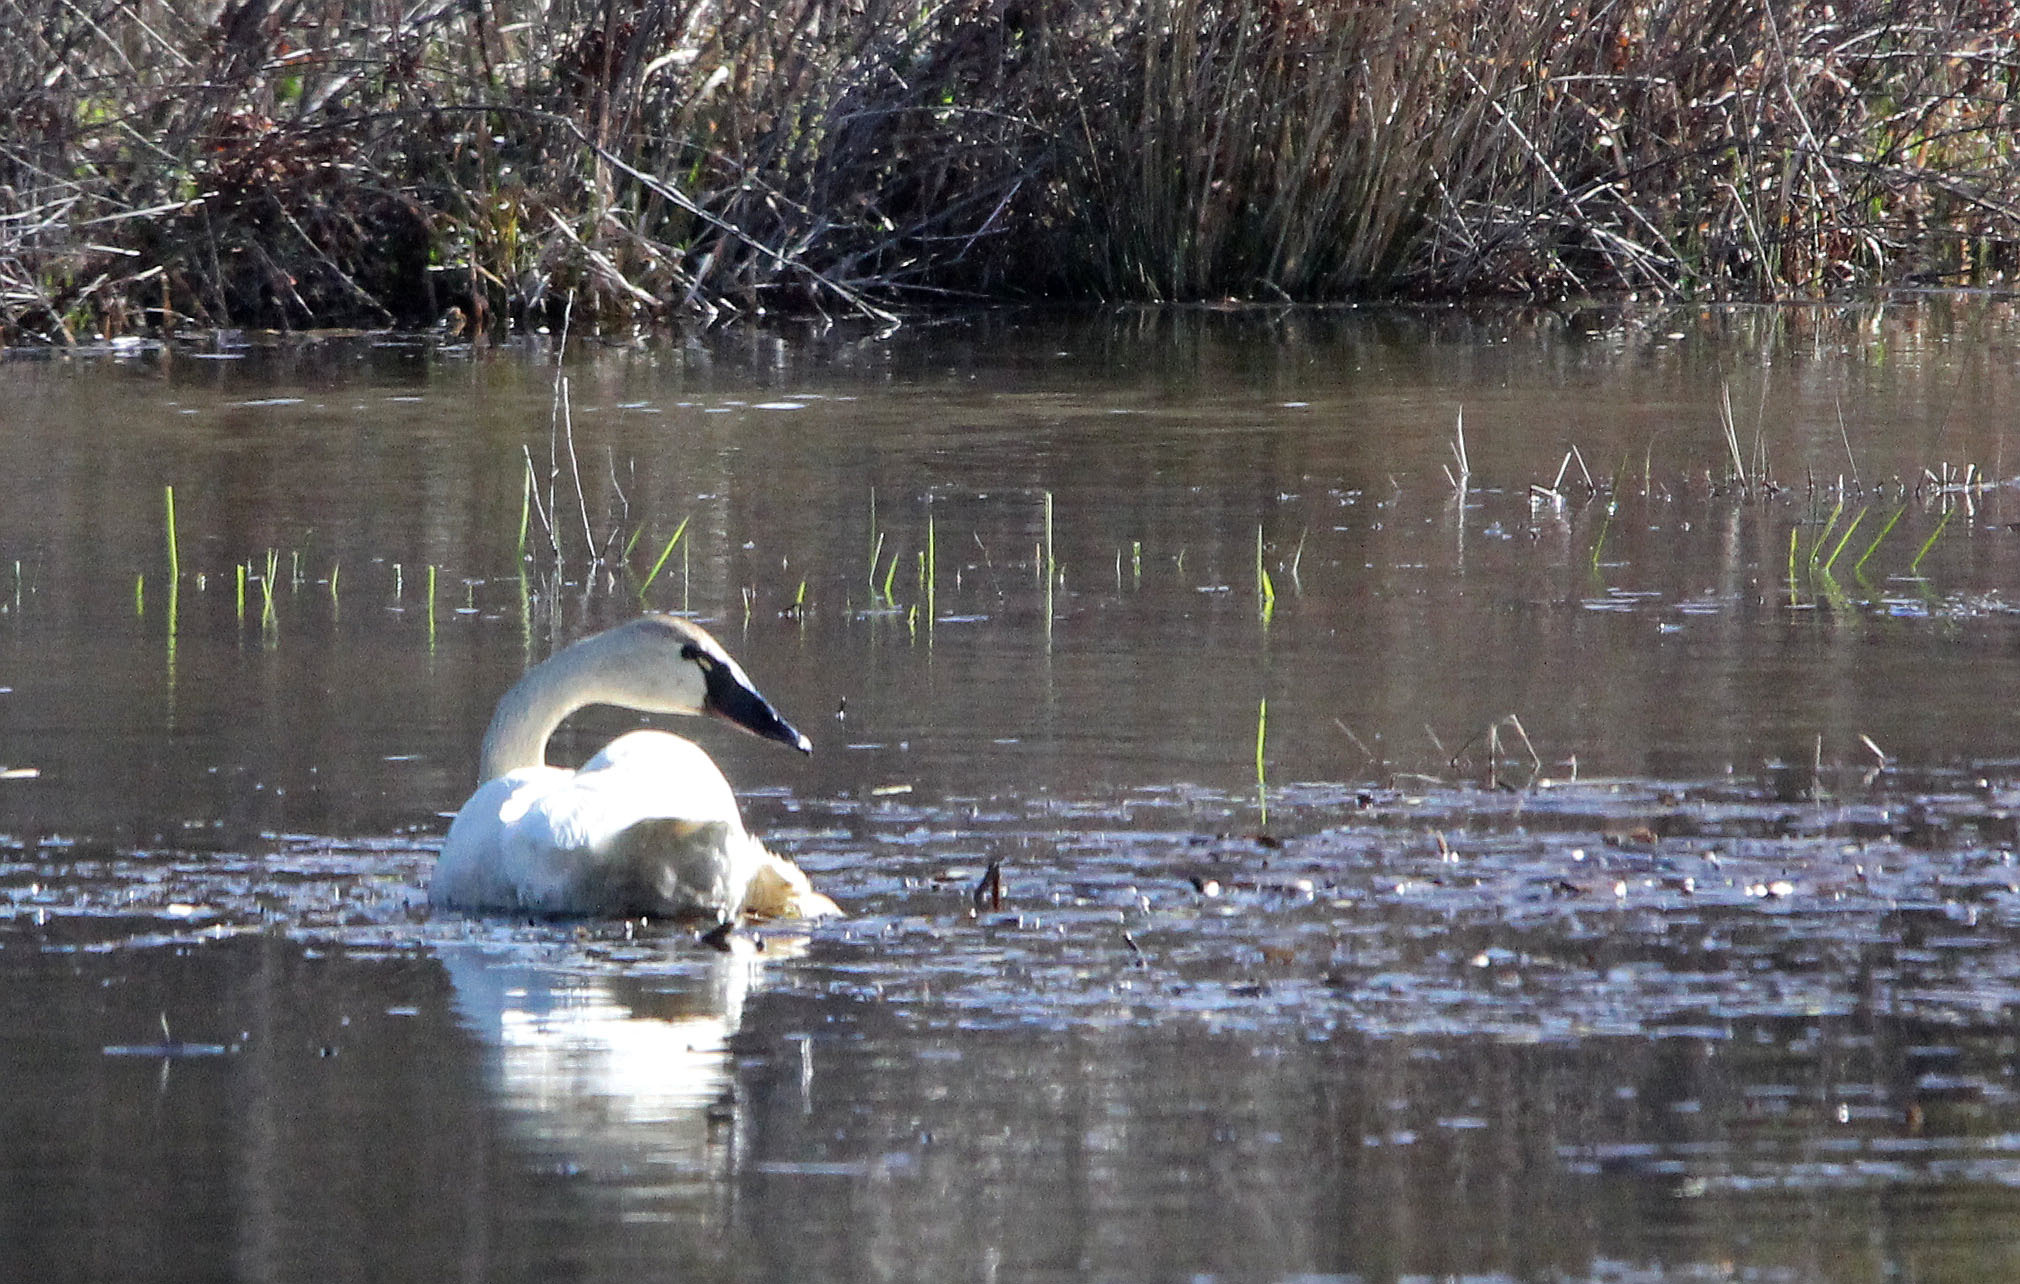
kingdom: Animalia
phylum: Chordata
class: Aves
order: Anseriformes
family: Anatidae
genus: Cygnus
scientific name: Cygnus columbianus
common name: Tundra swan
